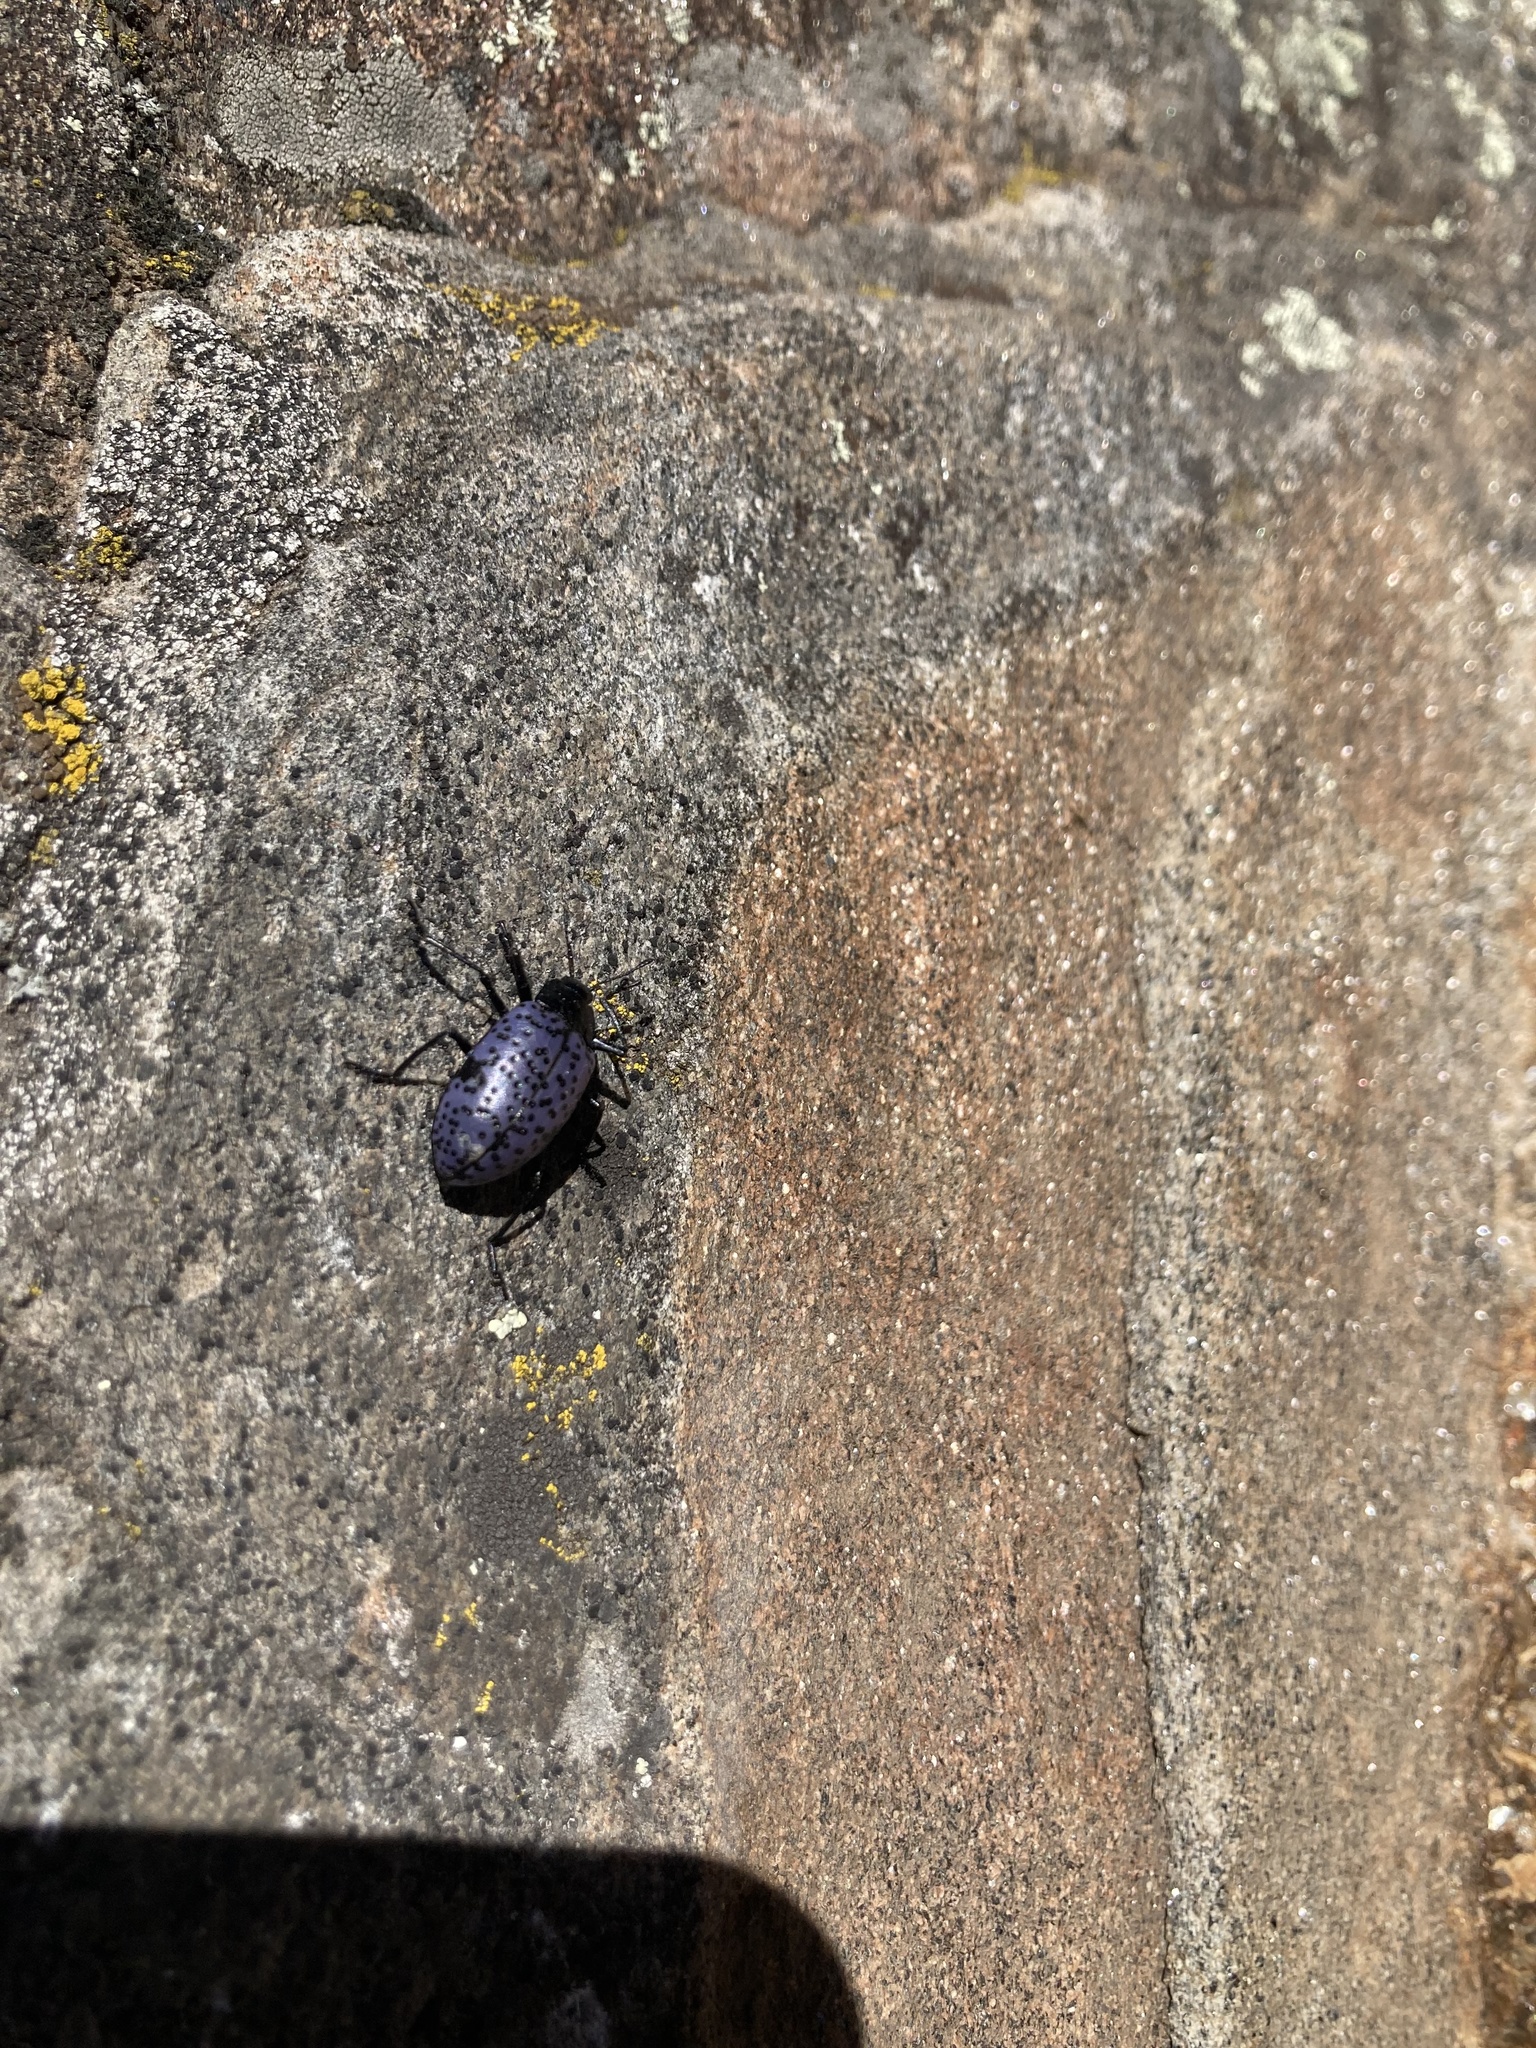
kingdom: Animalia
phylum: Arthropoda
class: Insecta
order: Coleoptera
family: Erotylidae
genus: Gibbifer
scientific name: Gibbifer californicus
